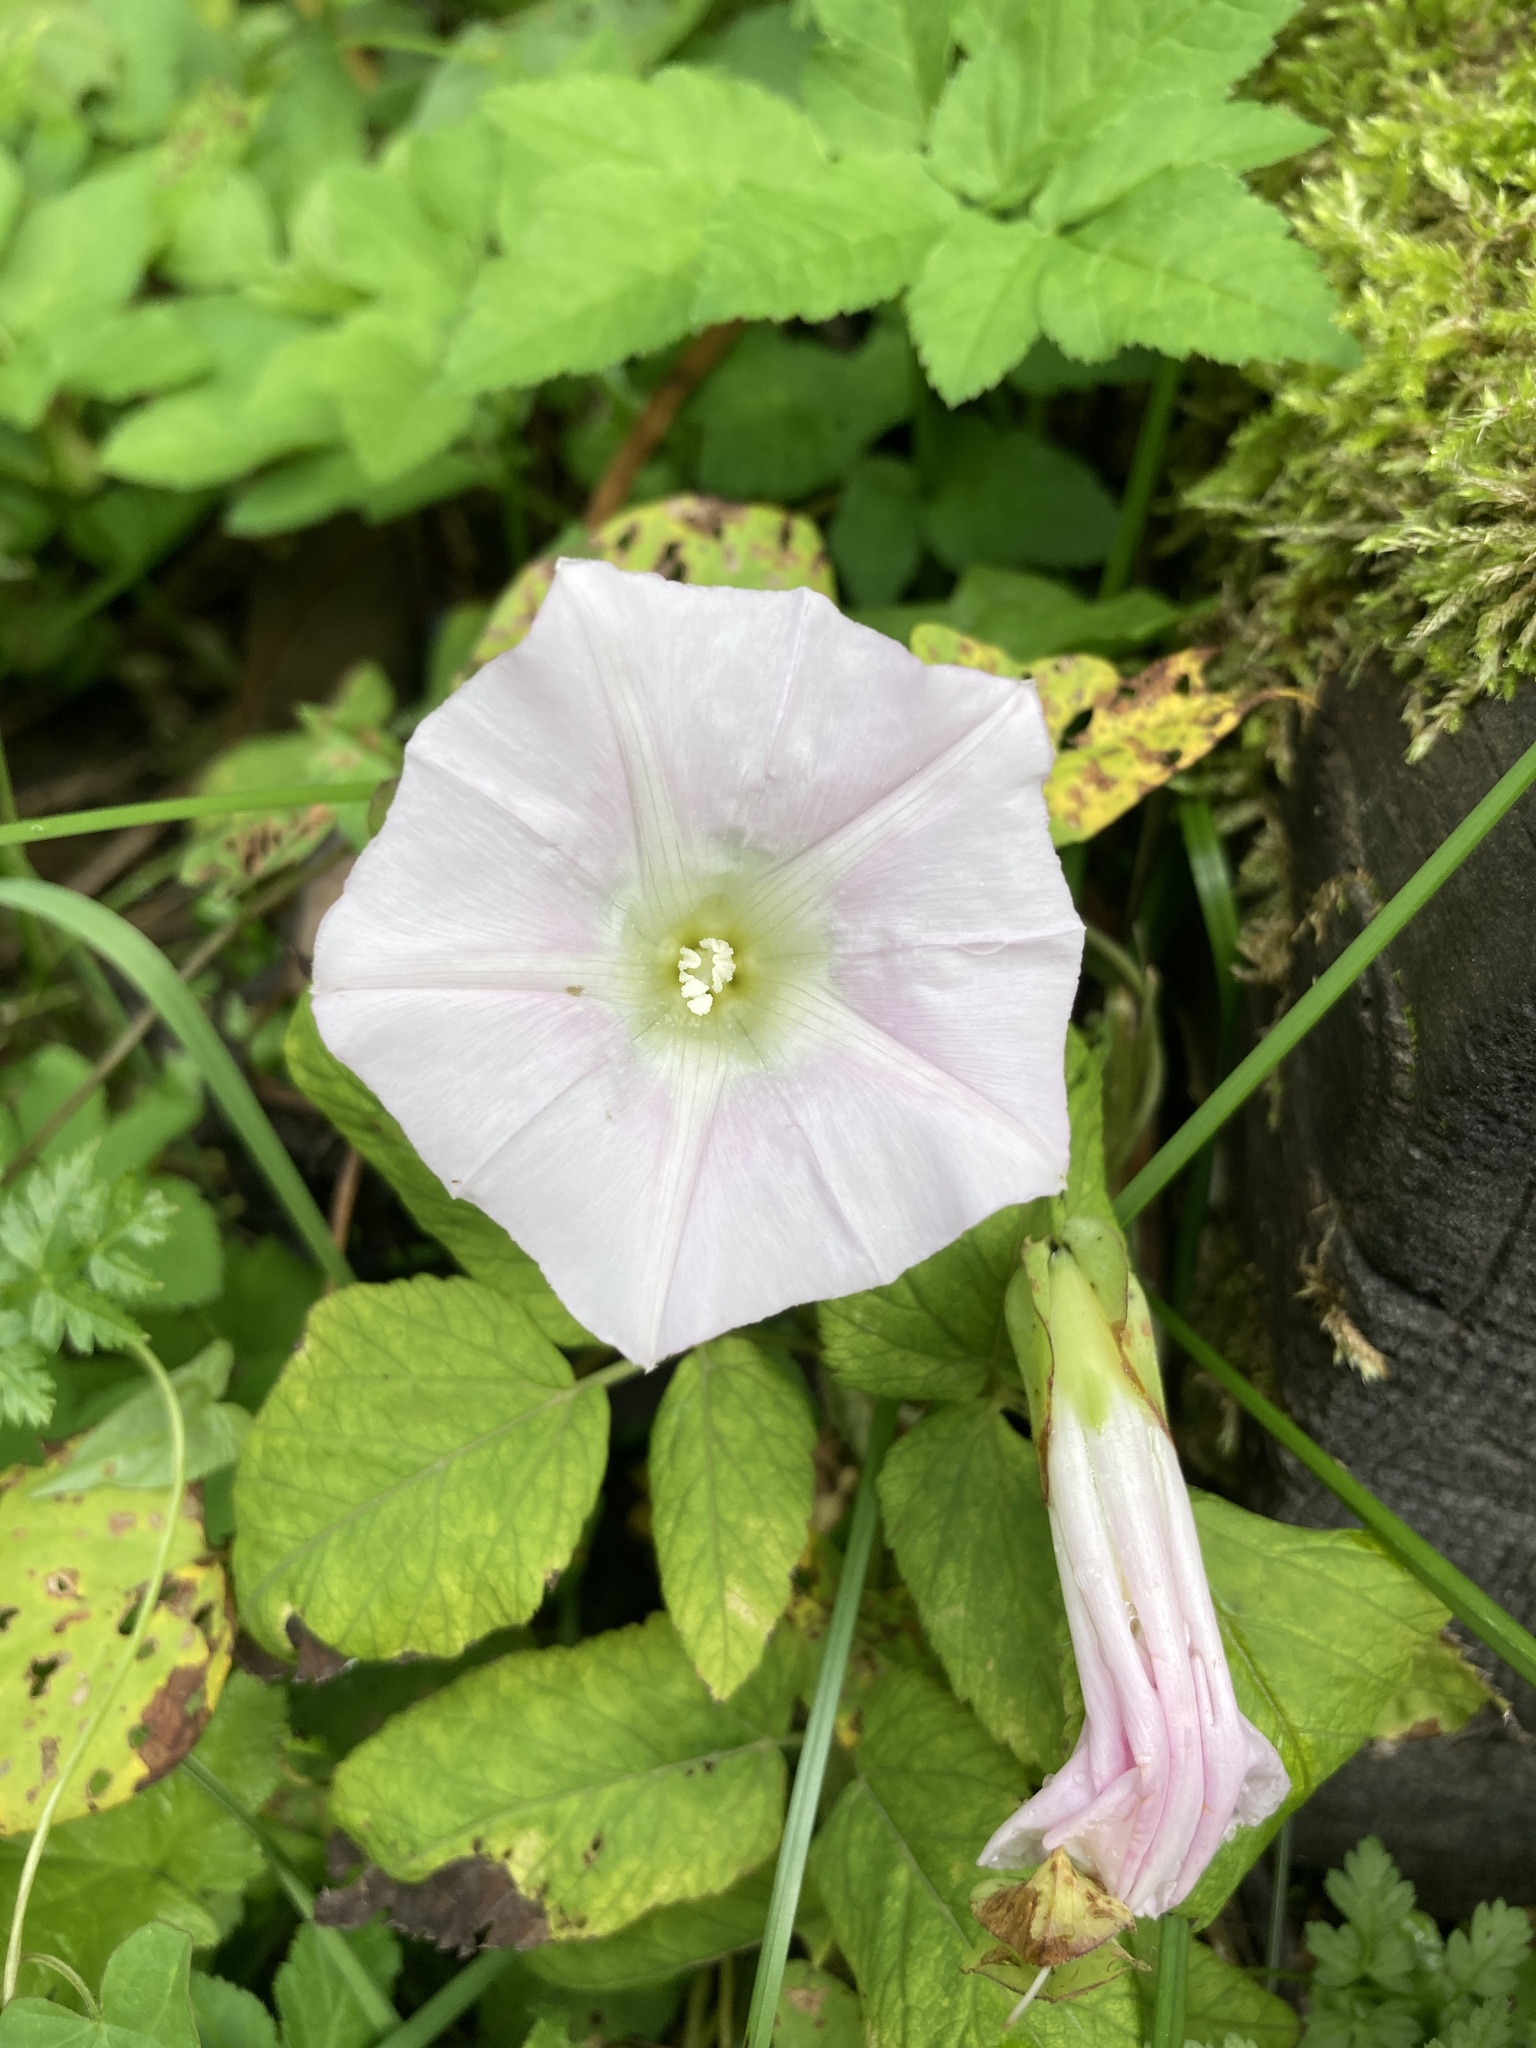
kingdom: Plantae
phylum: Tracheophyta
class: Magnoliopsida
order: Solanales
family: Convolvulaceae
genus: Calystegia
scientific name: Calystegia sepium
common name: Hedge bindweed
